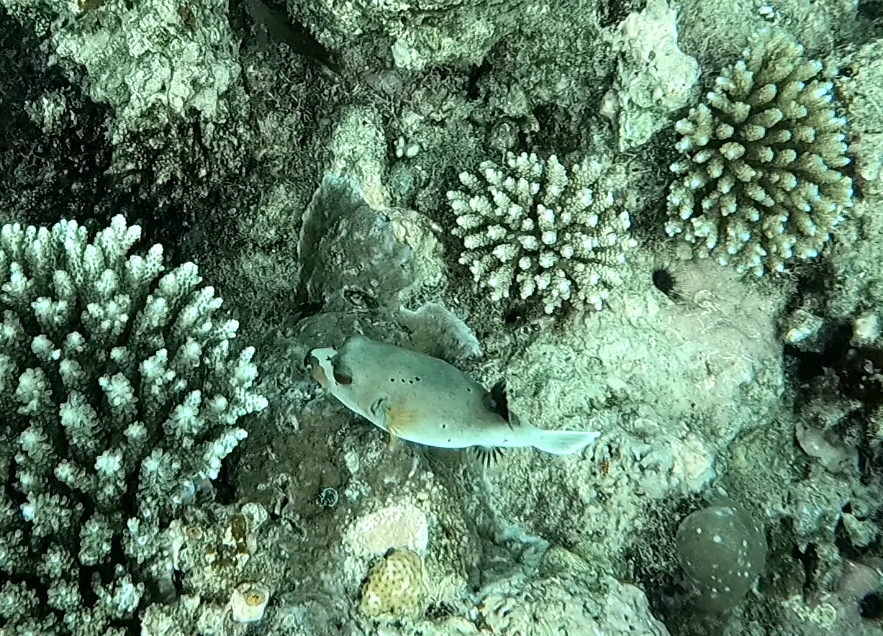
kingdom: Animalia
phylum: Chordata
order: Tetraodontiformes
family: Tetraodontidae
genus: Arothron
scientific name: Arothron nigropunctatus
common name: Black spotted blow fish
